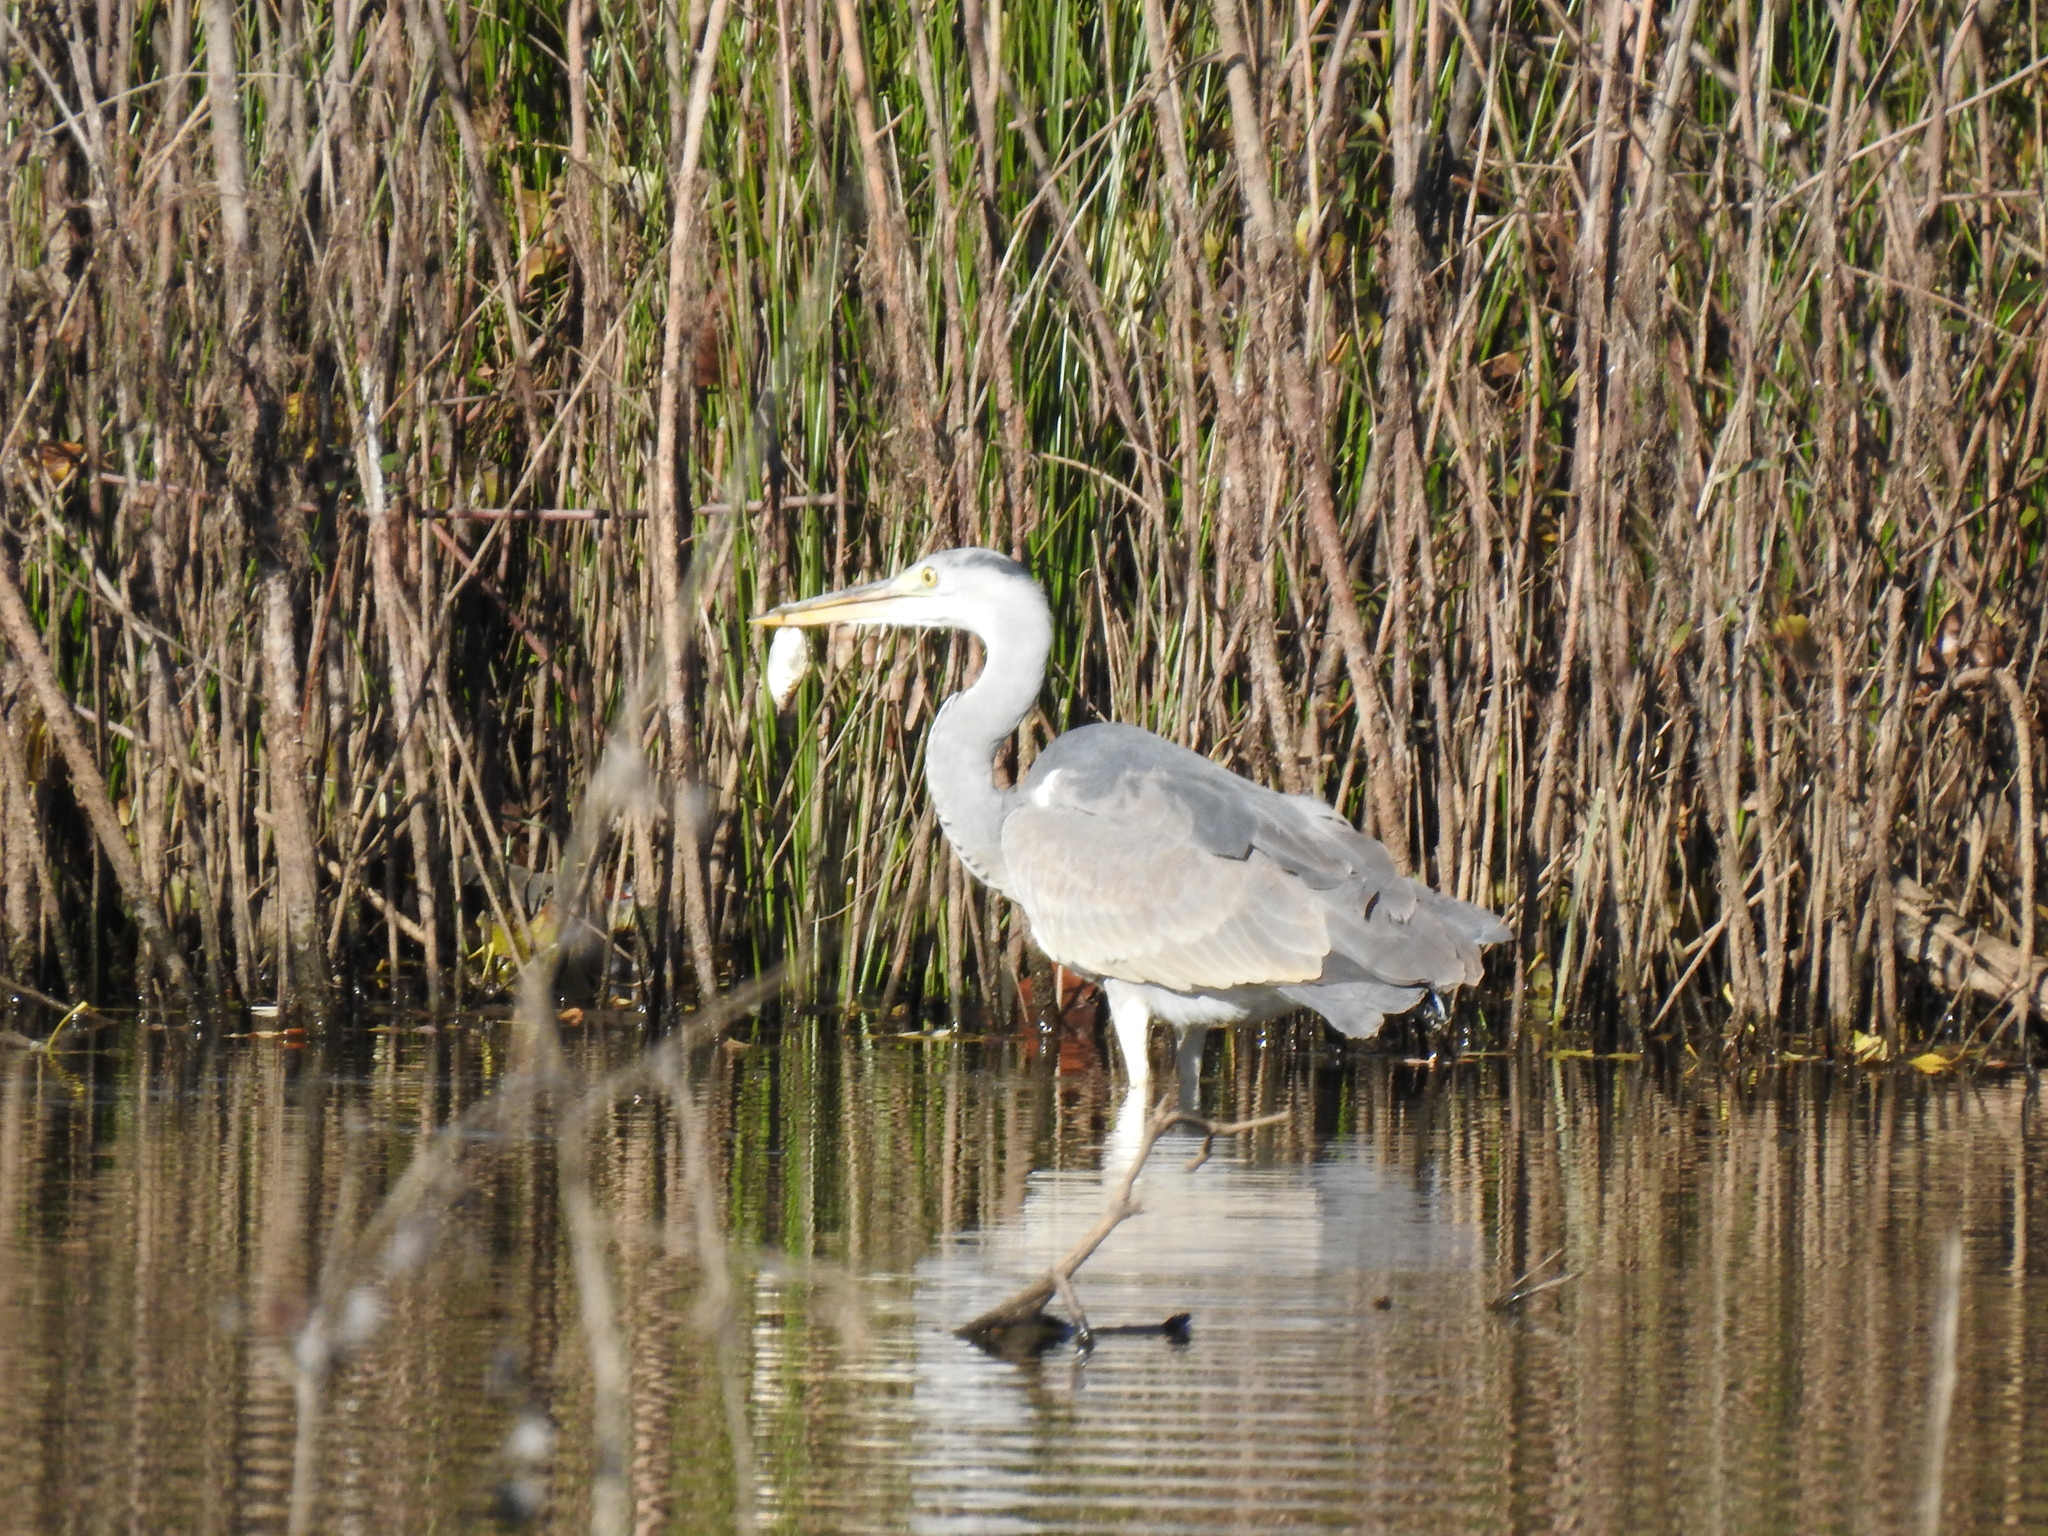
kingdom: Animalia
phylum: Chordata
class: Aves
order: Pelecaniformes
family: Ardeidae
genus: Ardea
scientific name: Ardea cinerea
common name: Grey heron
